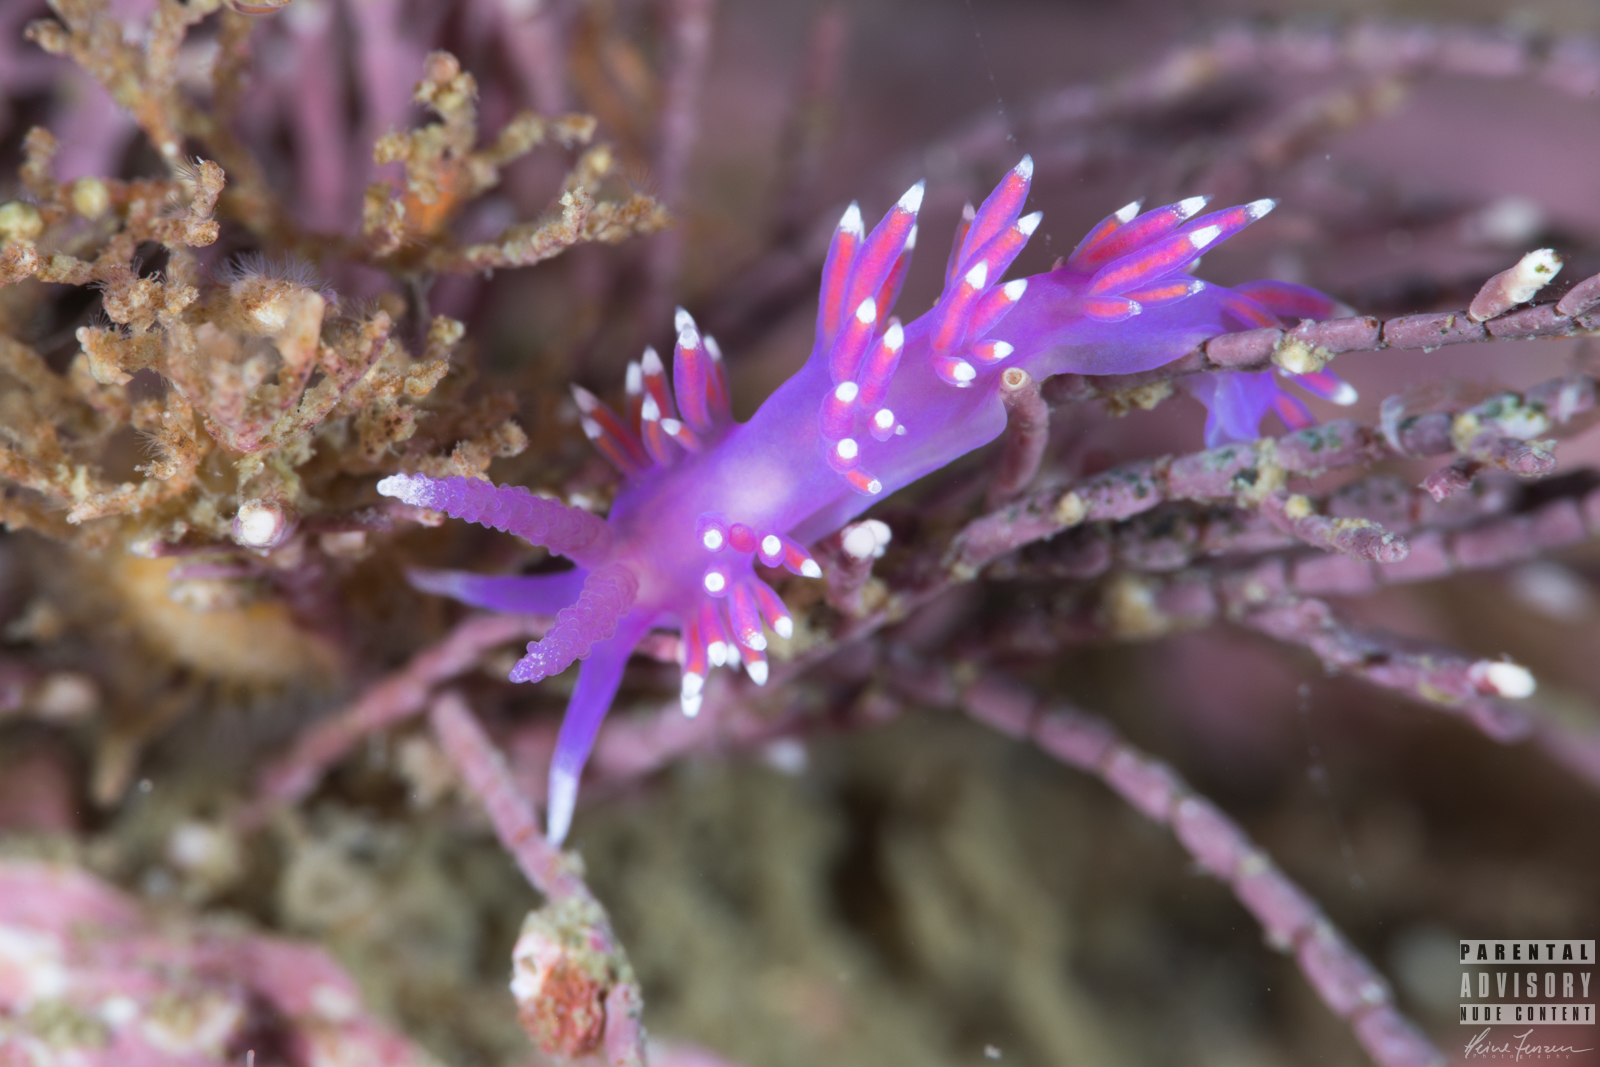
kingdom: Animalia
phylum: Mollusca
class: Gastropoda
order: Nudibranchia
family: Flabellinidae
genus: Edmundsella
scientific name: Edmundsella pedata
